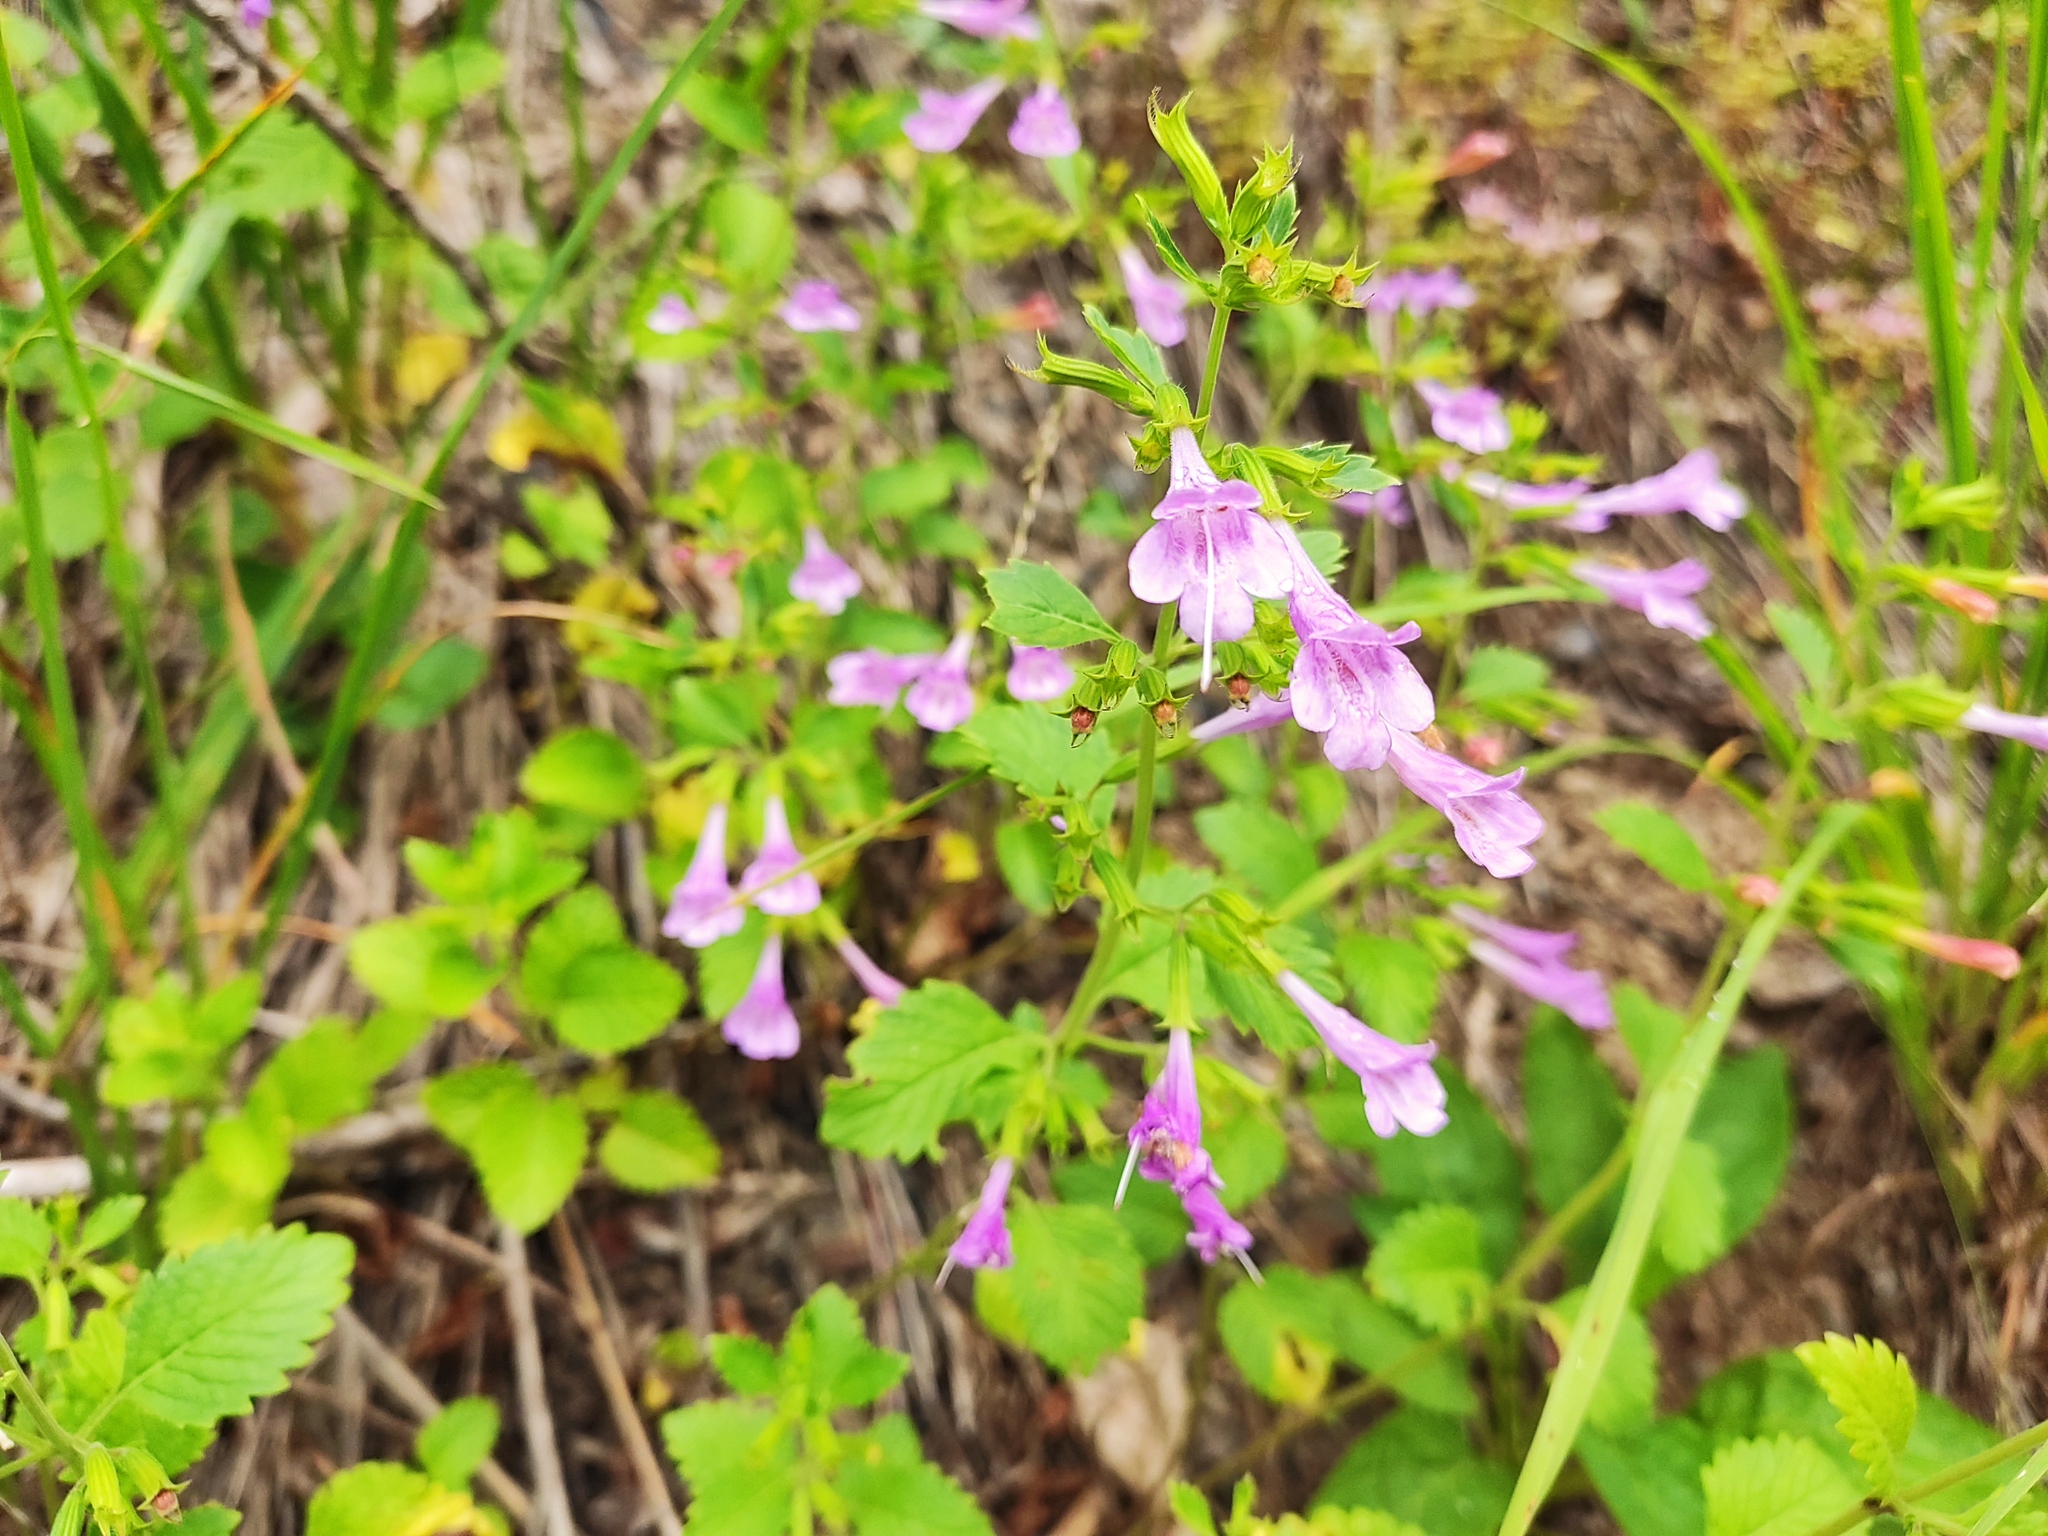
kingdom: Plantae
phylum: Tracheophyta
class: Magnoliopsida
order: Lamiales
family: Lamiaceae
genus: Clinopodium
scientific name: Clinopodium grandiflorum
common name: Greater calamint
